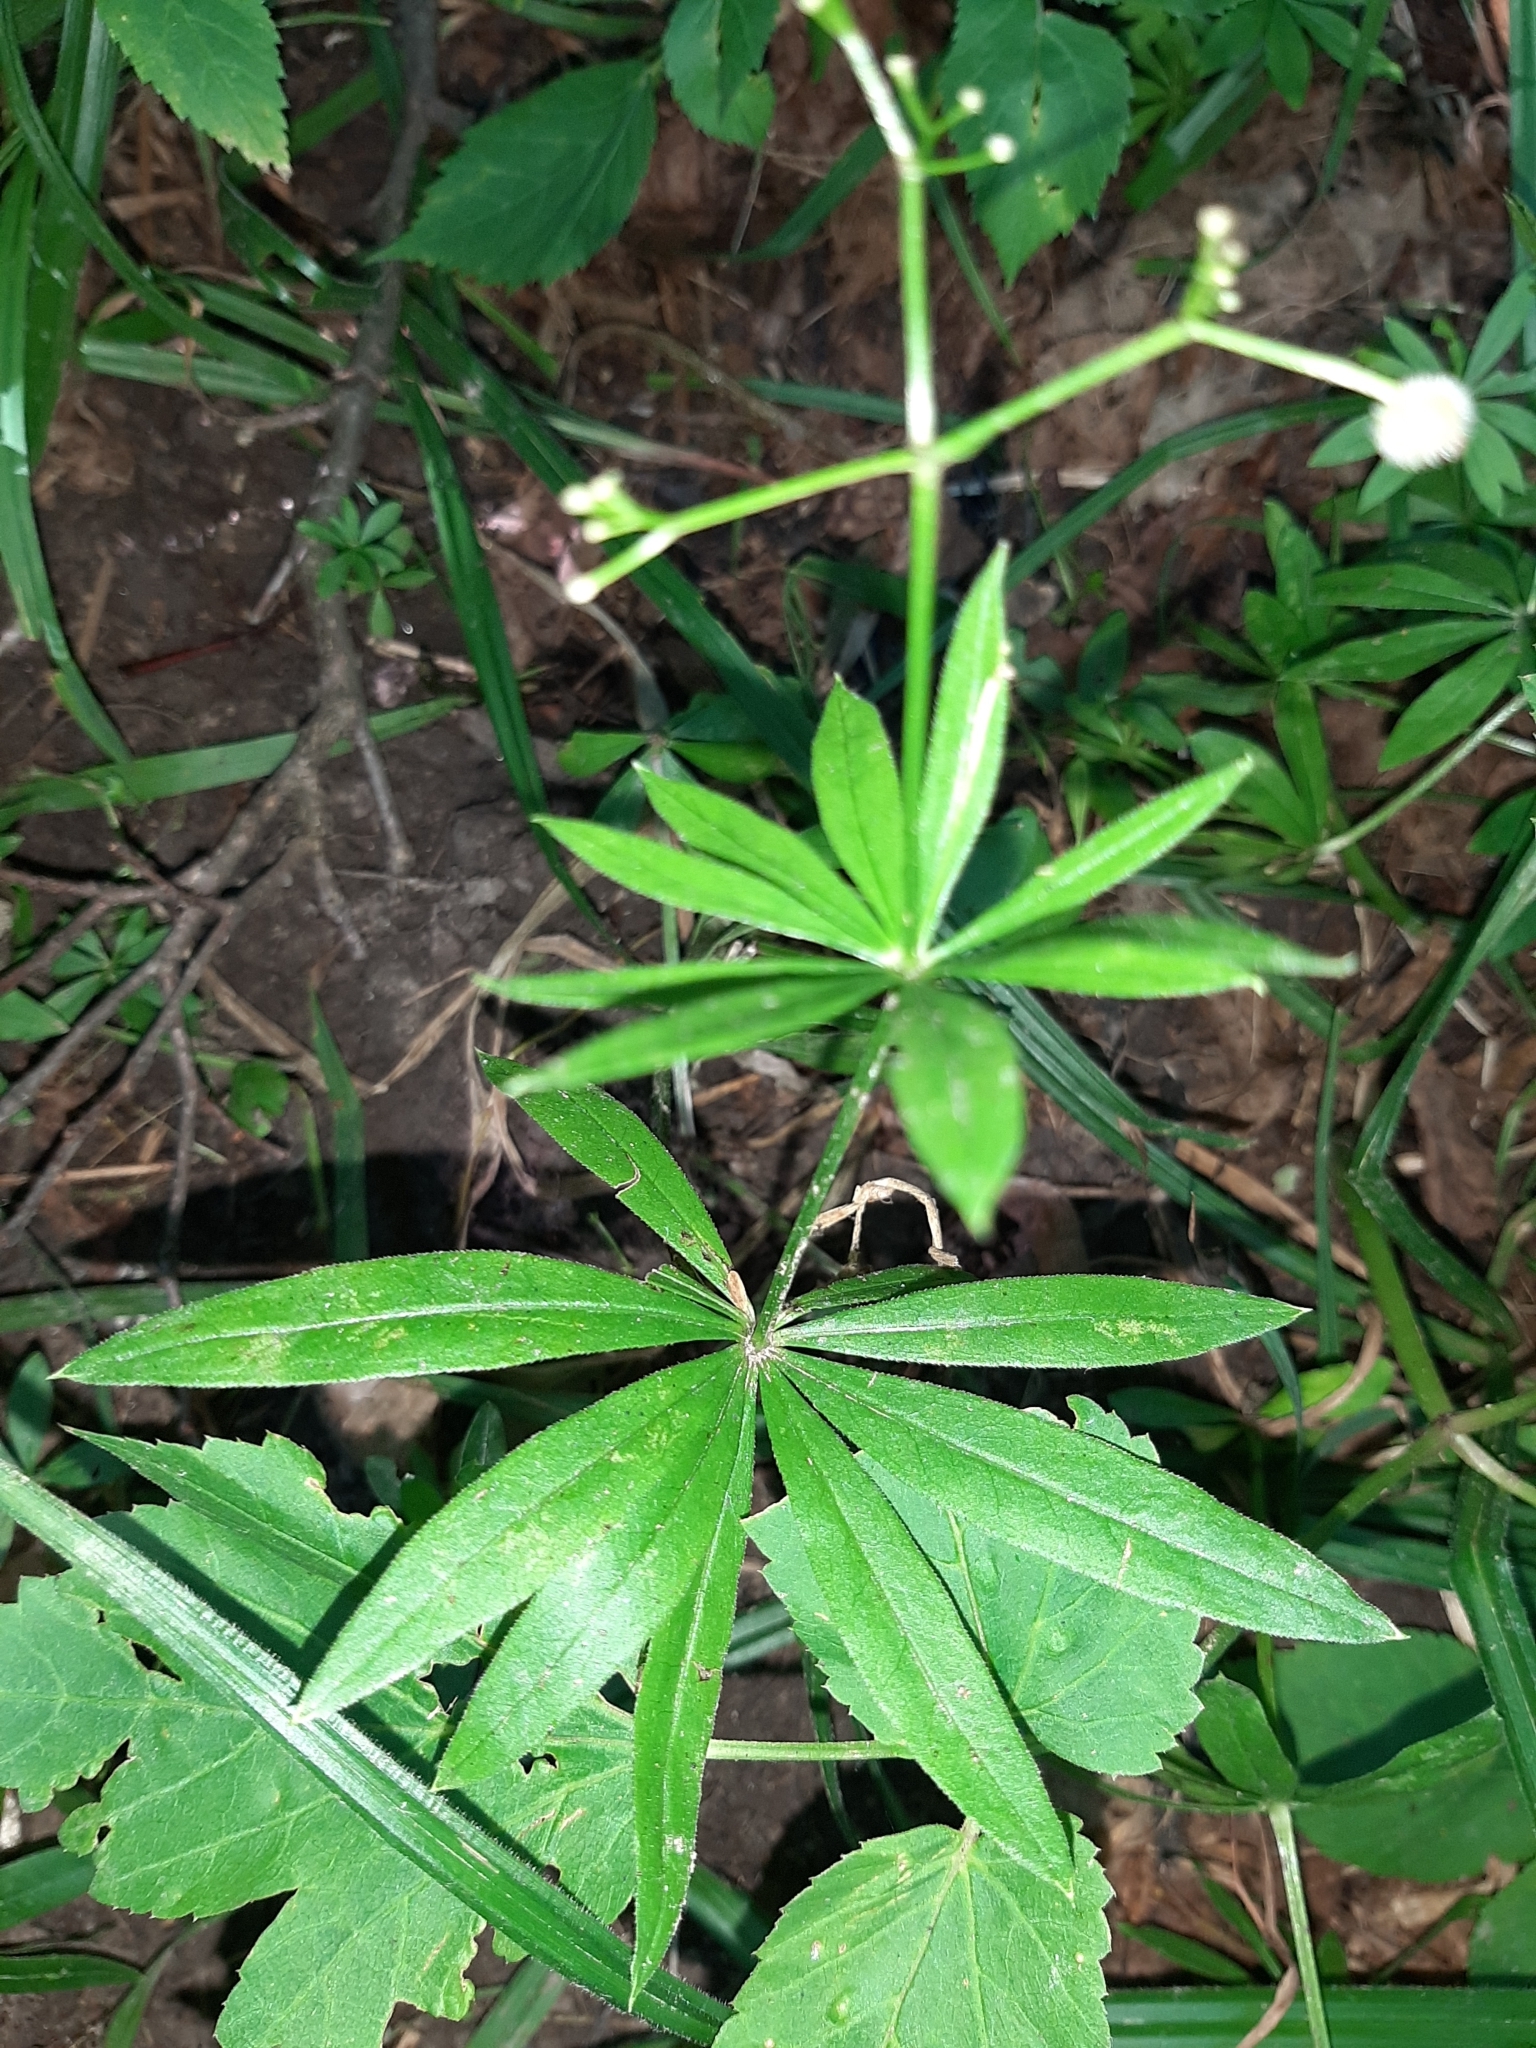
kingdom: Plantae
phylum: Tracheophyta
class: Magnoliopsida
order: Gentianales
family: Rubiaceae
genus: Galium
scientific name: Galium odoratum
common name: Sweet woodruff
